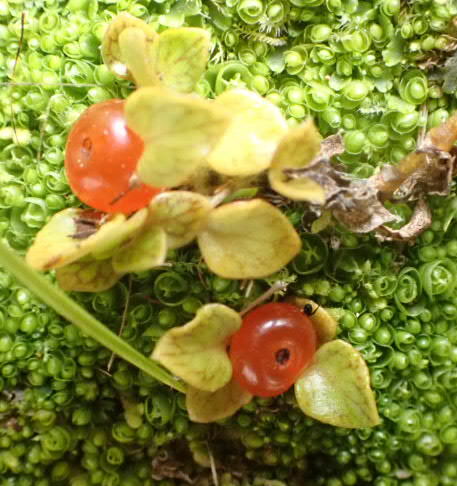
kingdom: Plantae
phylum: Tracheophyta
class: Magnoliopsida
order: Gentianales
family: Rubiaceae
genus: Nertera
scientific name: Nertera granadensis
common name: Beadplant
